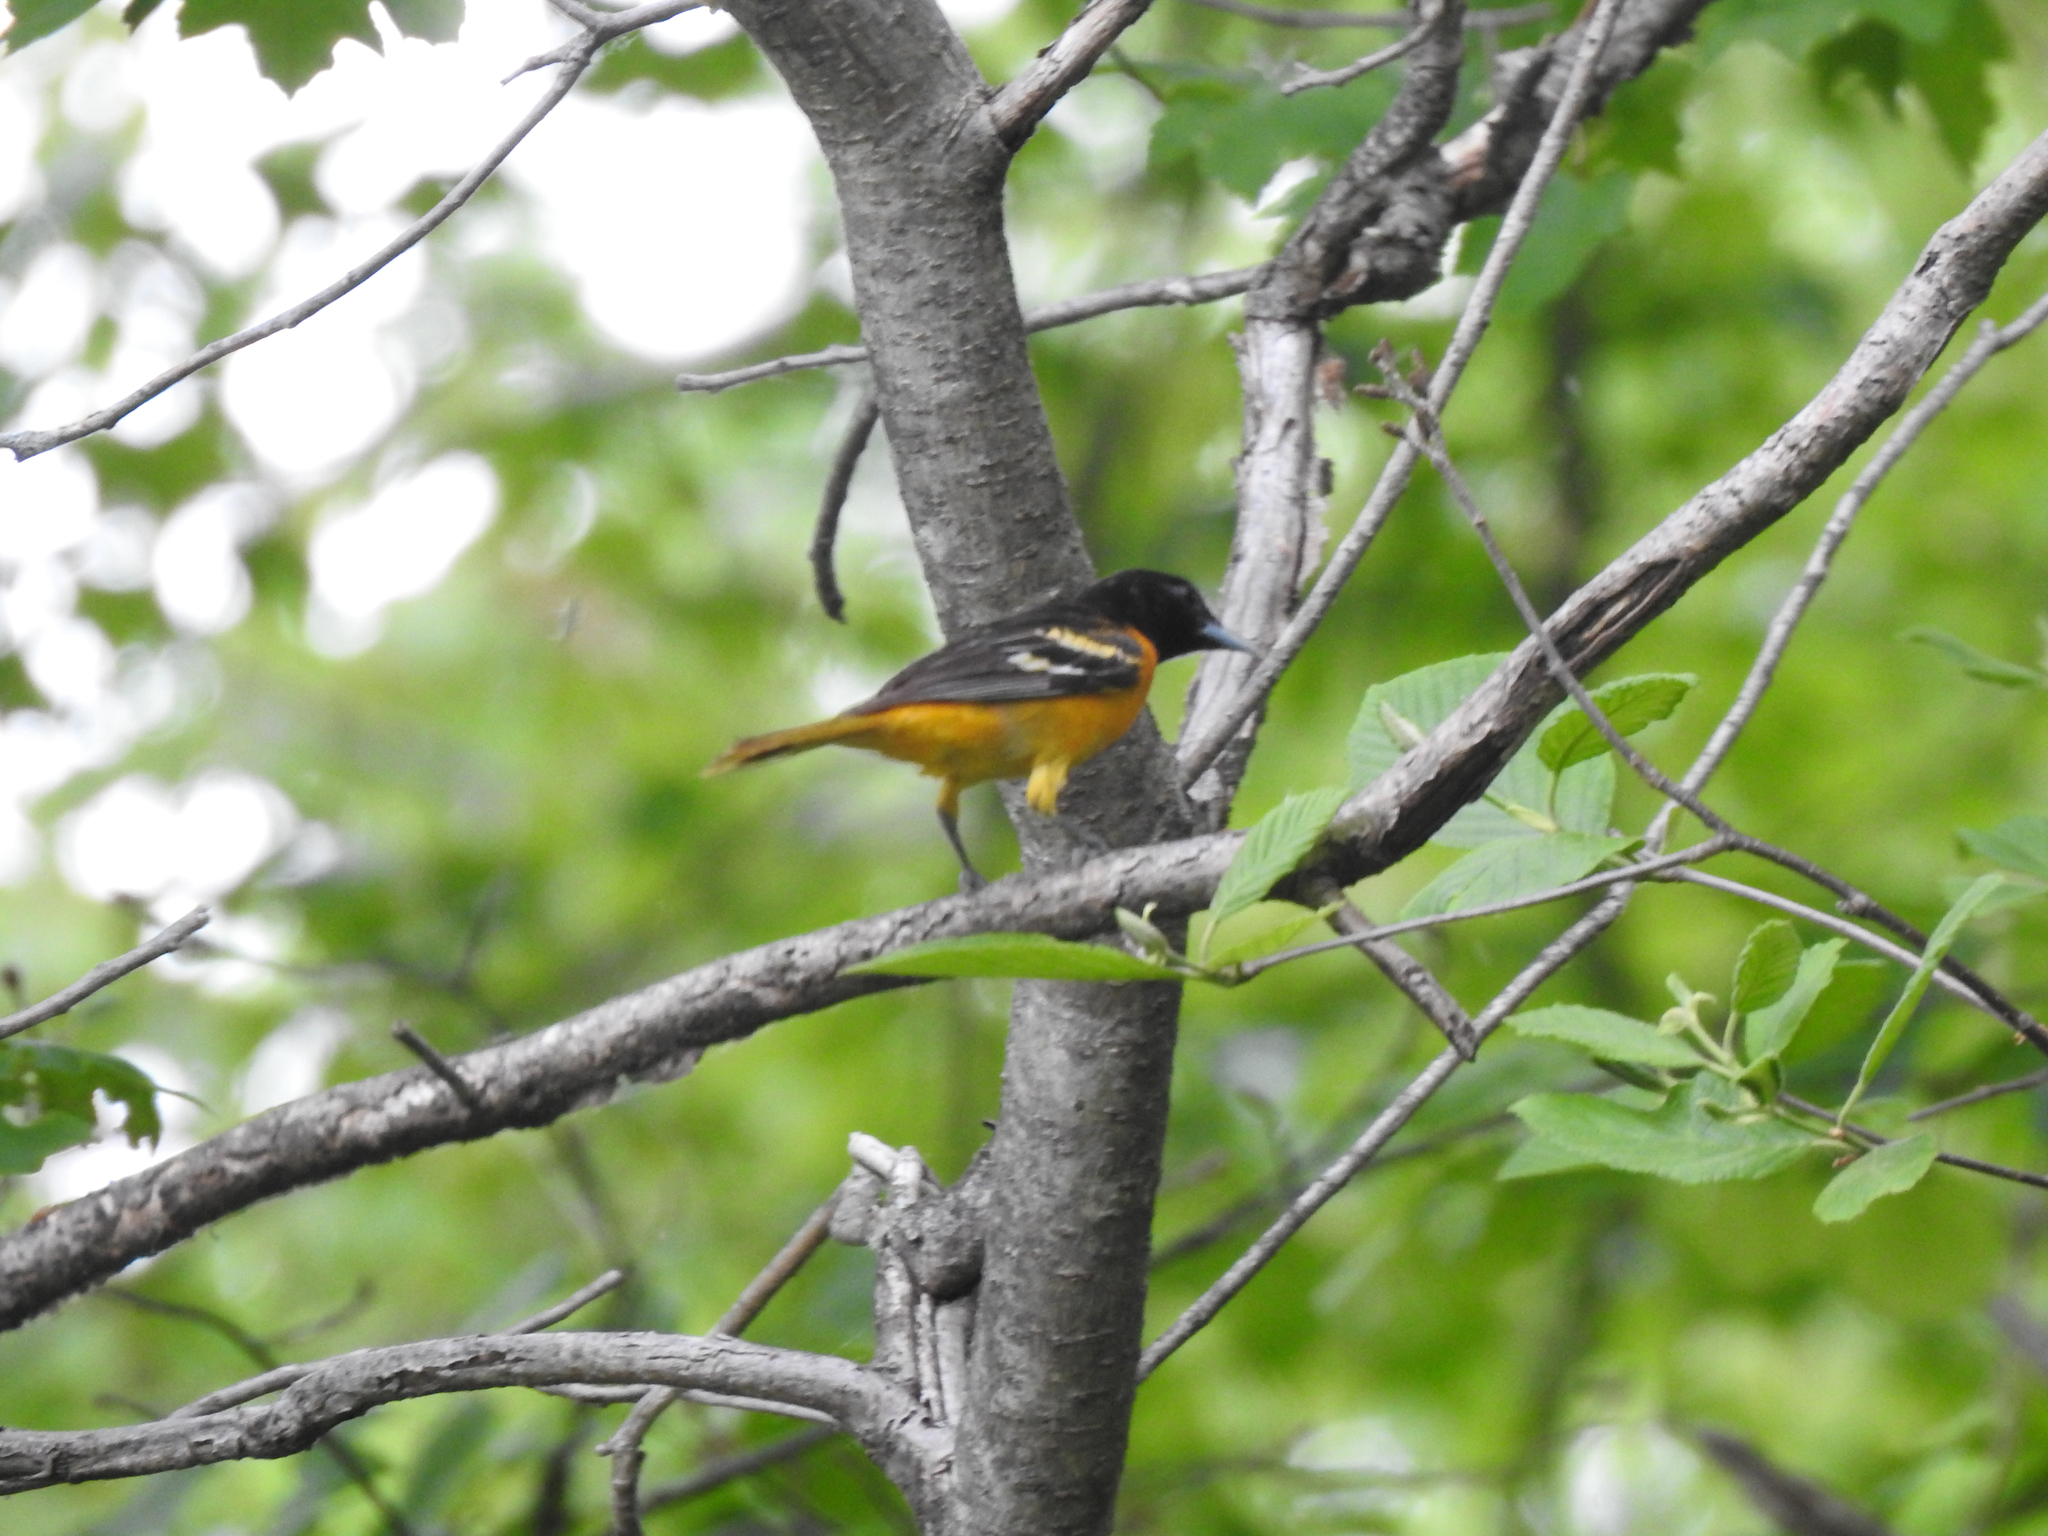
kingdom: Animalia
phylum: Chordata
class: Aves
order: Passeriformes
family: Icteridae
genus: Icterus
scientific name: Icterus galbula
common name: Baltimore oriole
